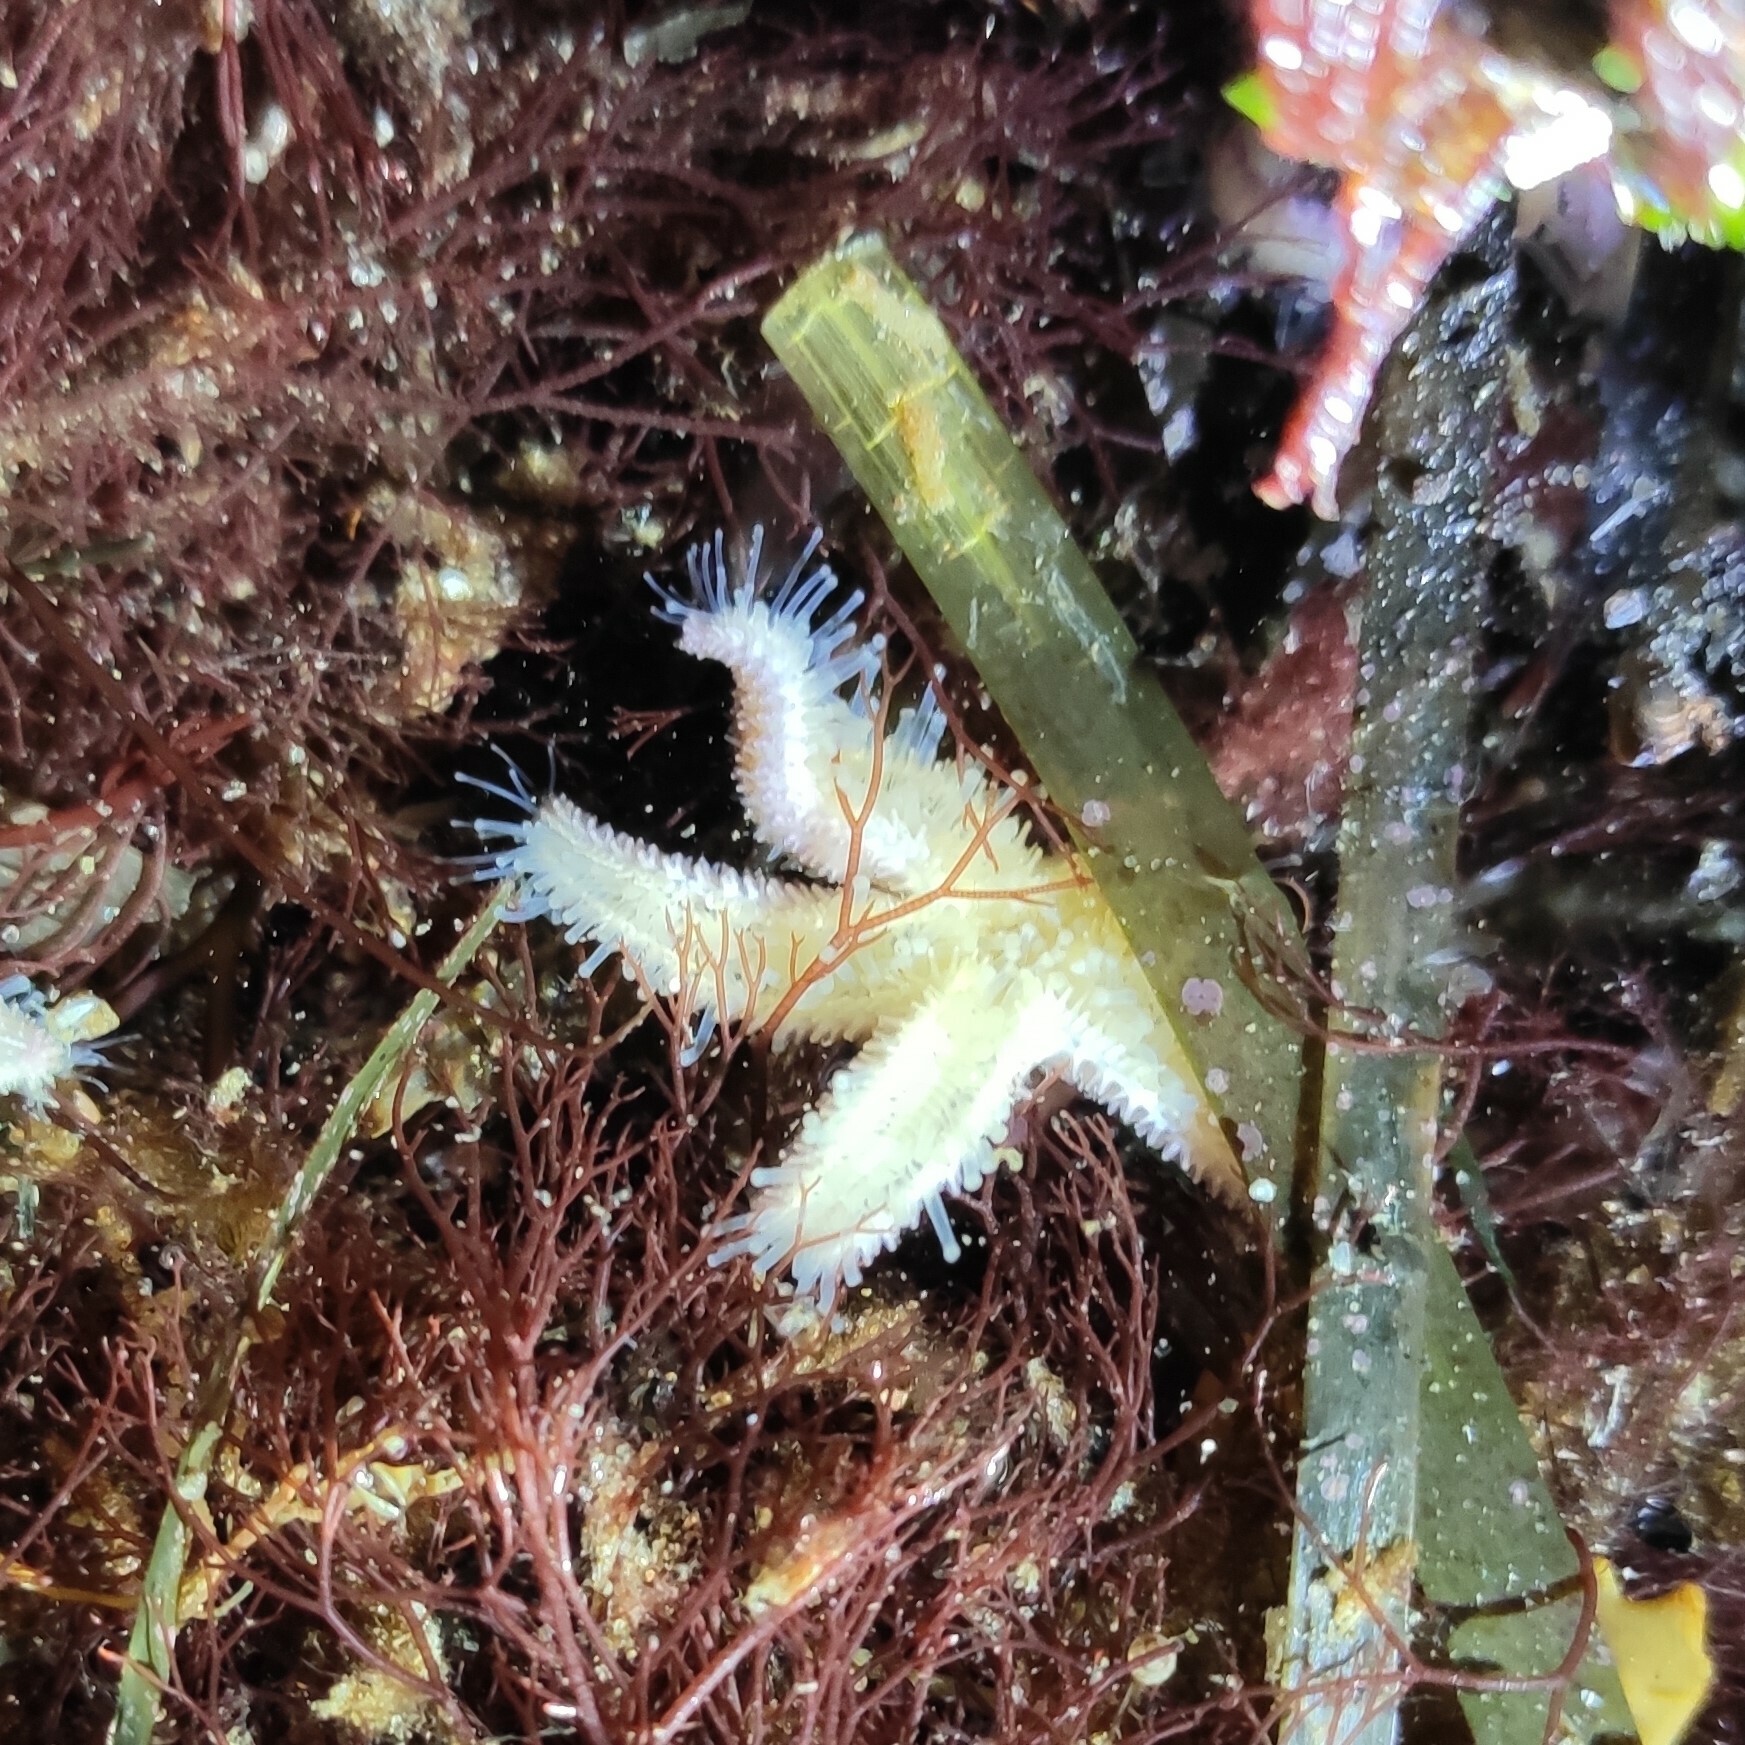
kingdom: Animalia
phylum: Echinodermata
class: Asteroidea
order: Forcipulatida
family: Asteriidae
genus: Asterias
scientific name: Asterias rubens
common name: Common starfish
